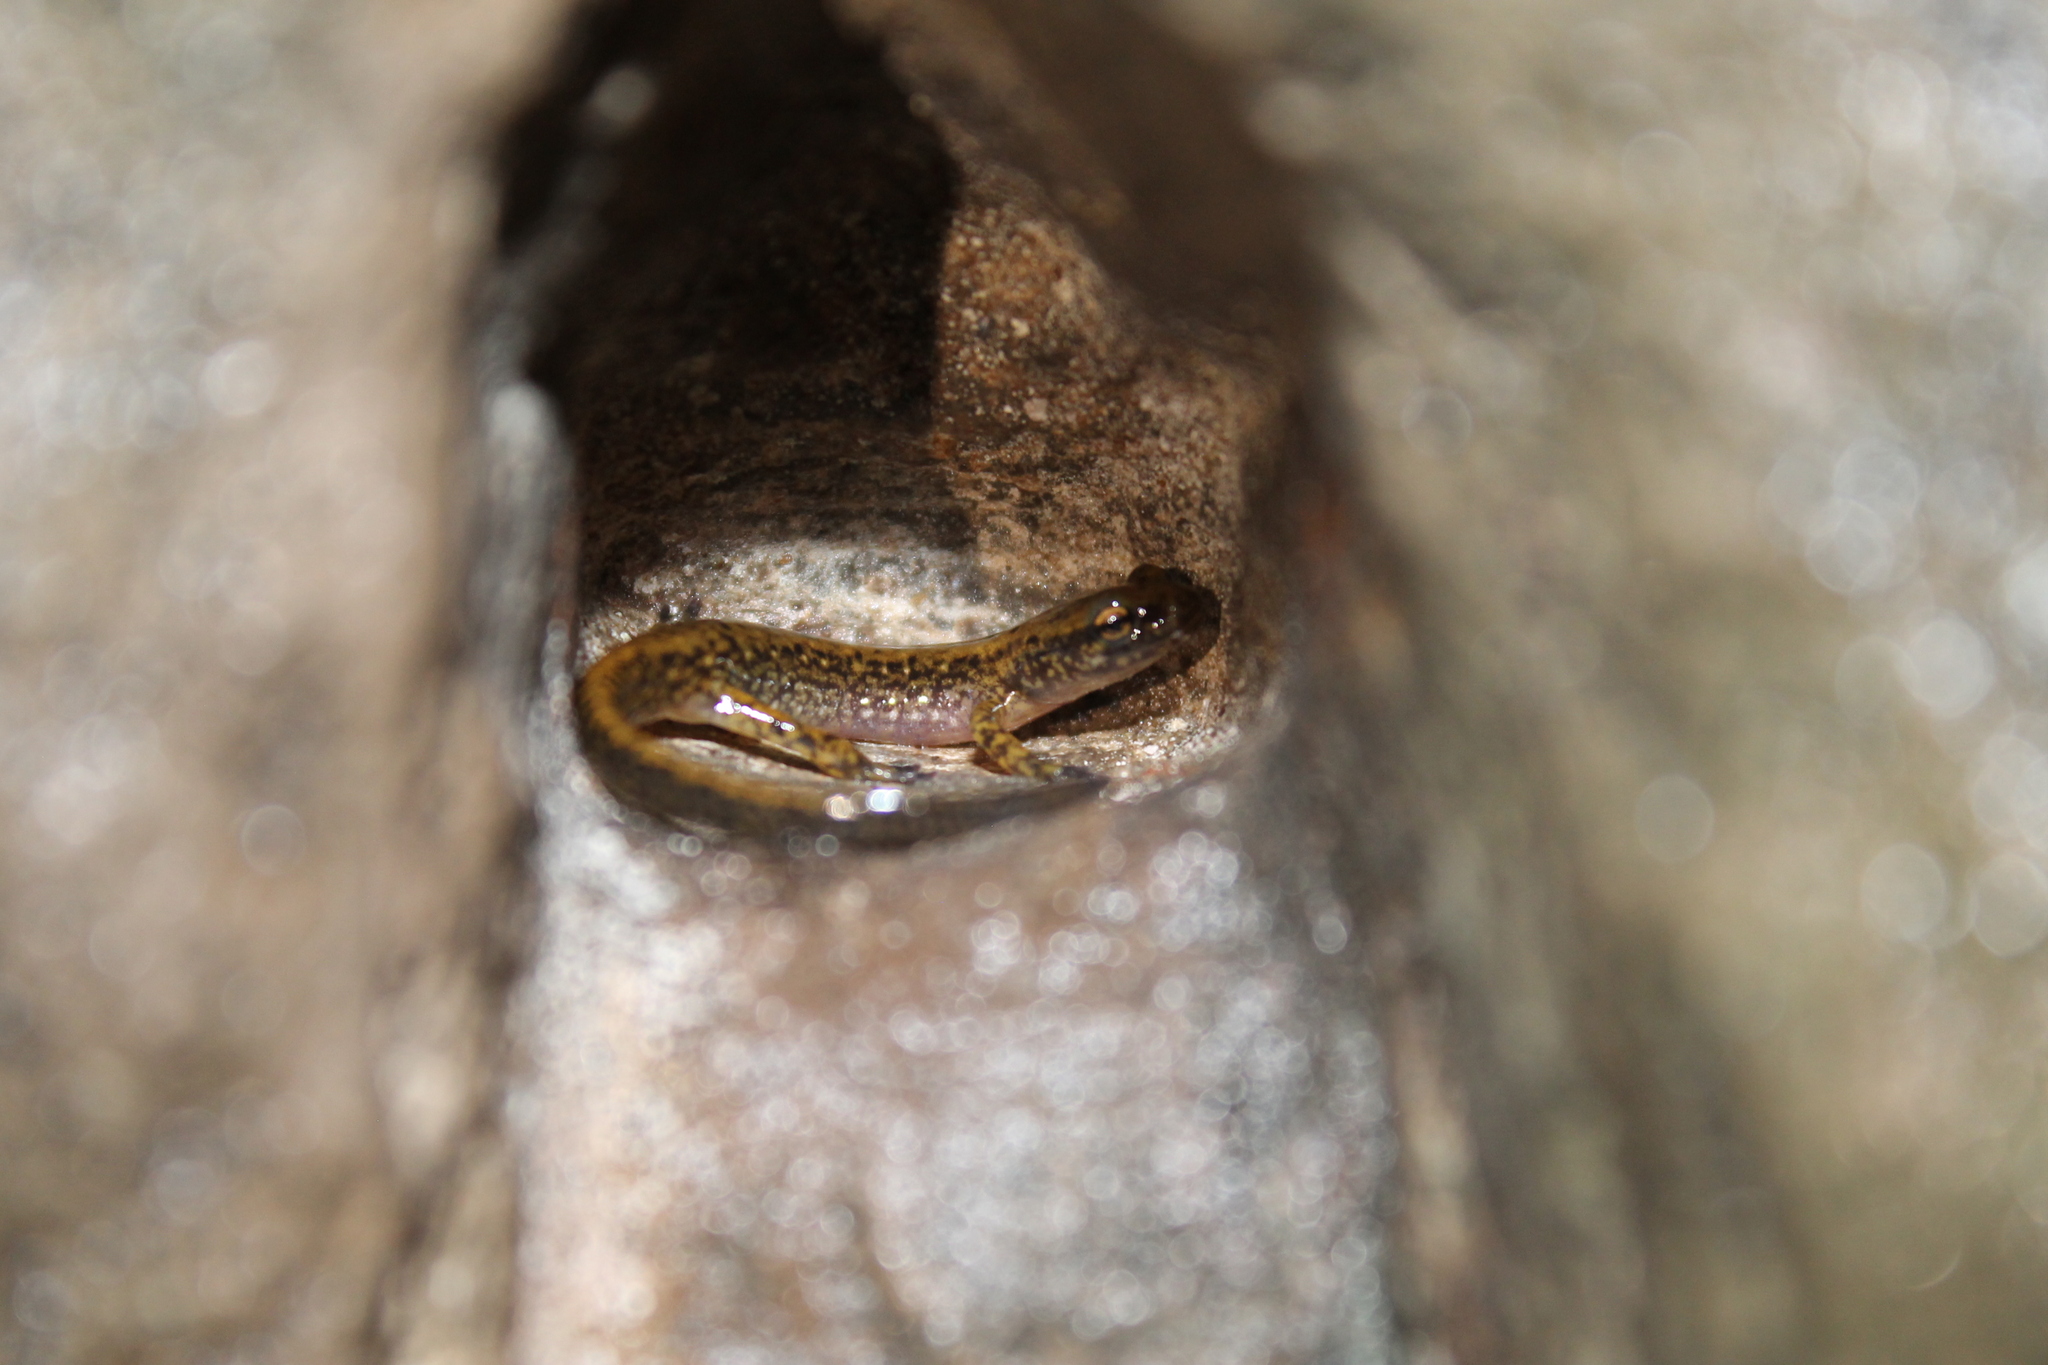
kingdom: Animalia
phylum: Chordata
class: Amphibia
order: Caudata
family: Plethodontidae
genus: Eurycea
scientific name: Eurycea lucifuga
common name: Cave salamander
